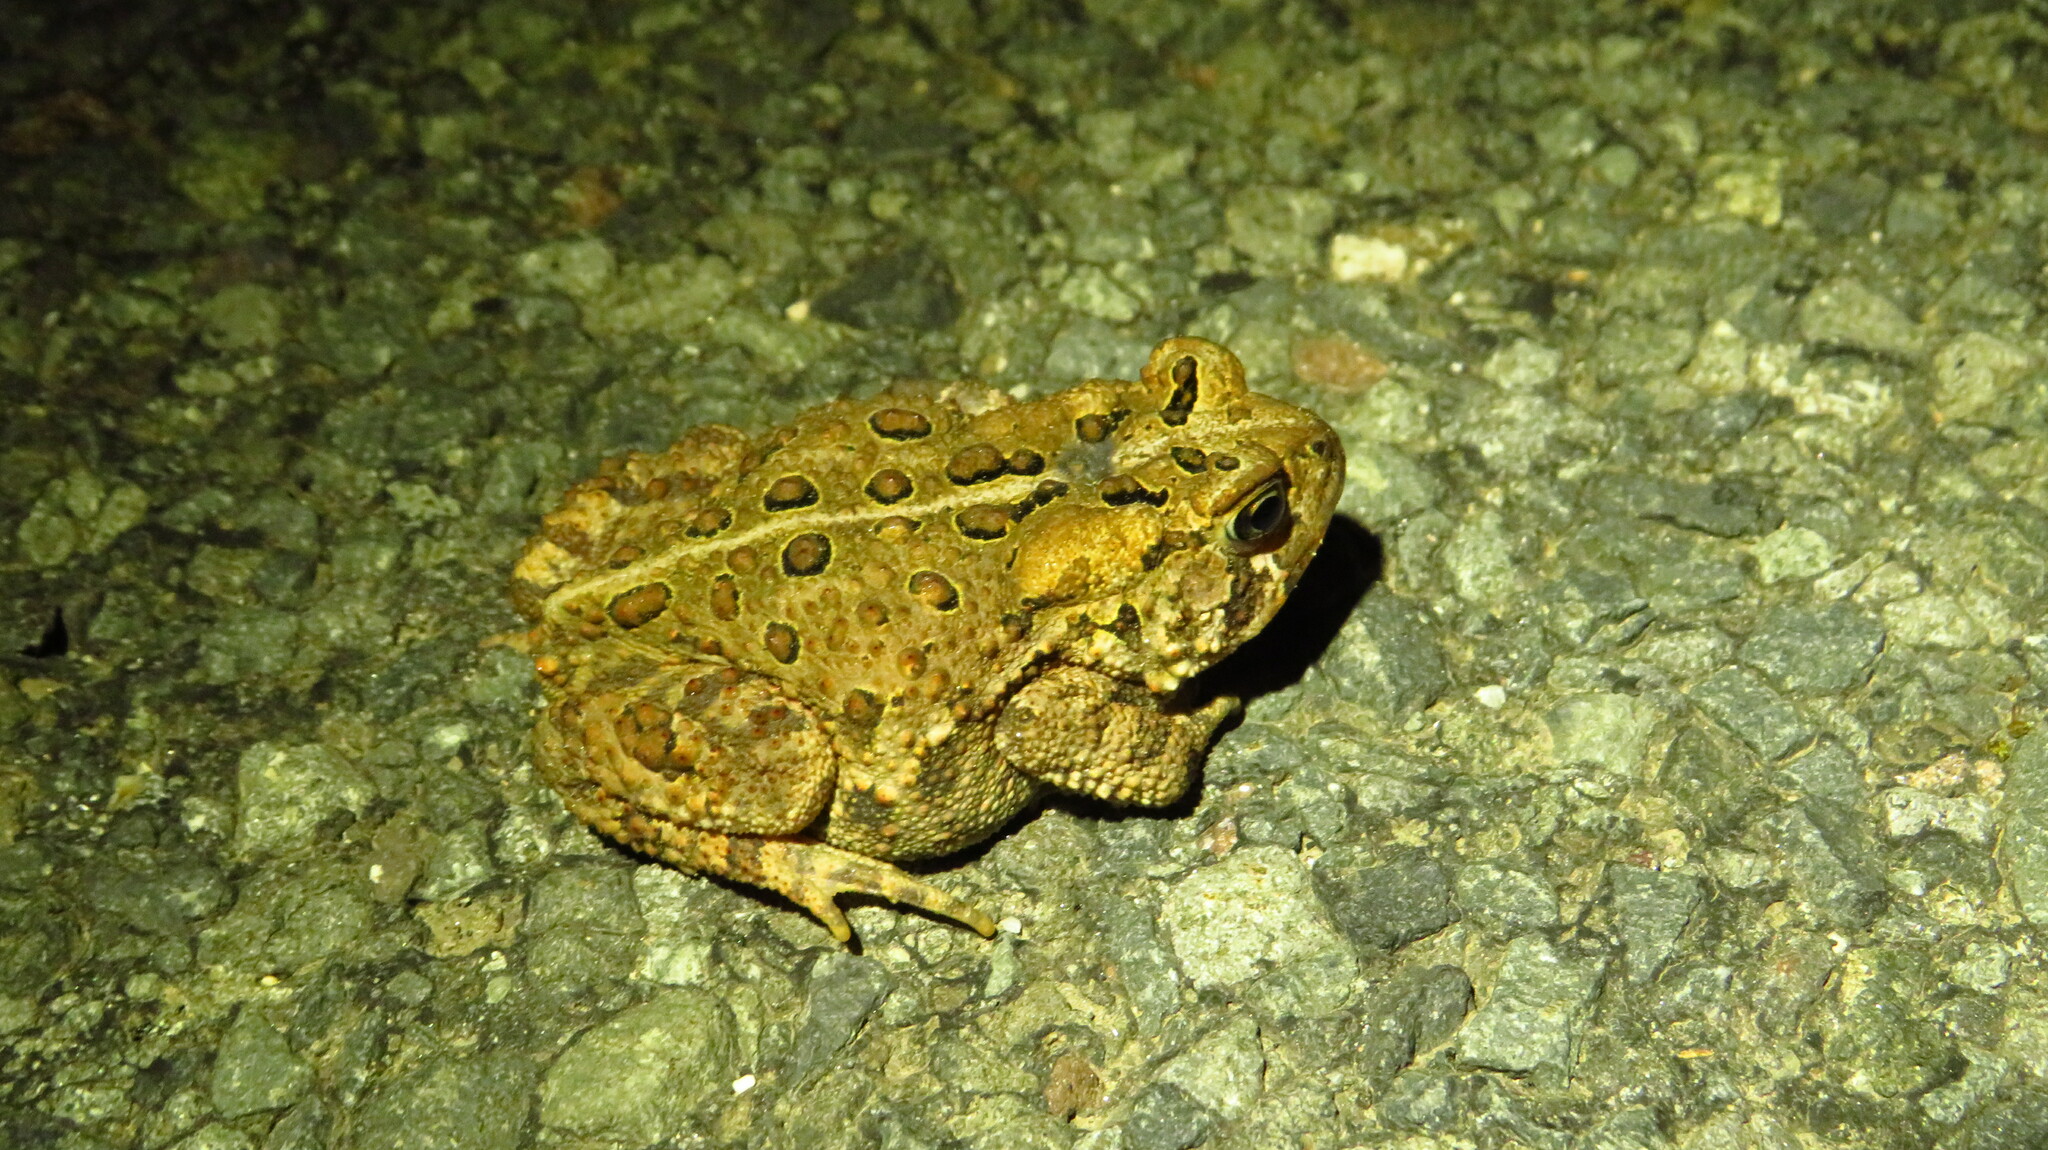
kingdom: Animalia
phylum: Chordata
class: Amphibia
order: Anura
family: Bufonidae
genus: Anaxyrus
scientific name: Anaxyrus americanus
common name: American toad
